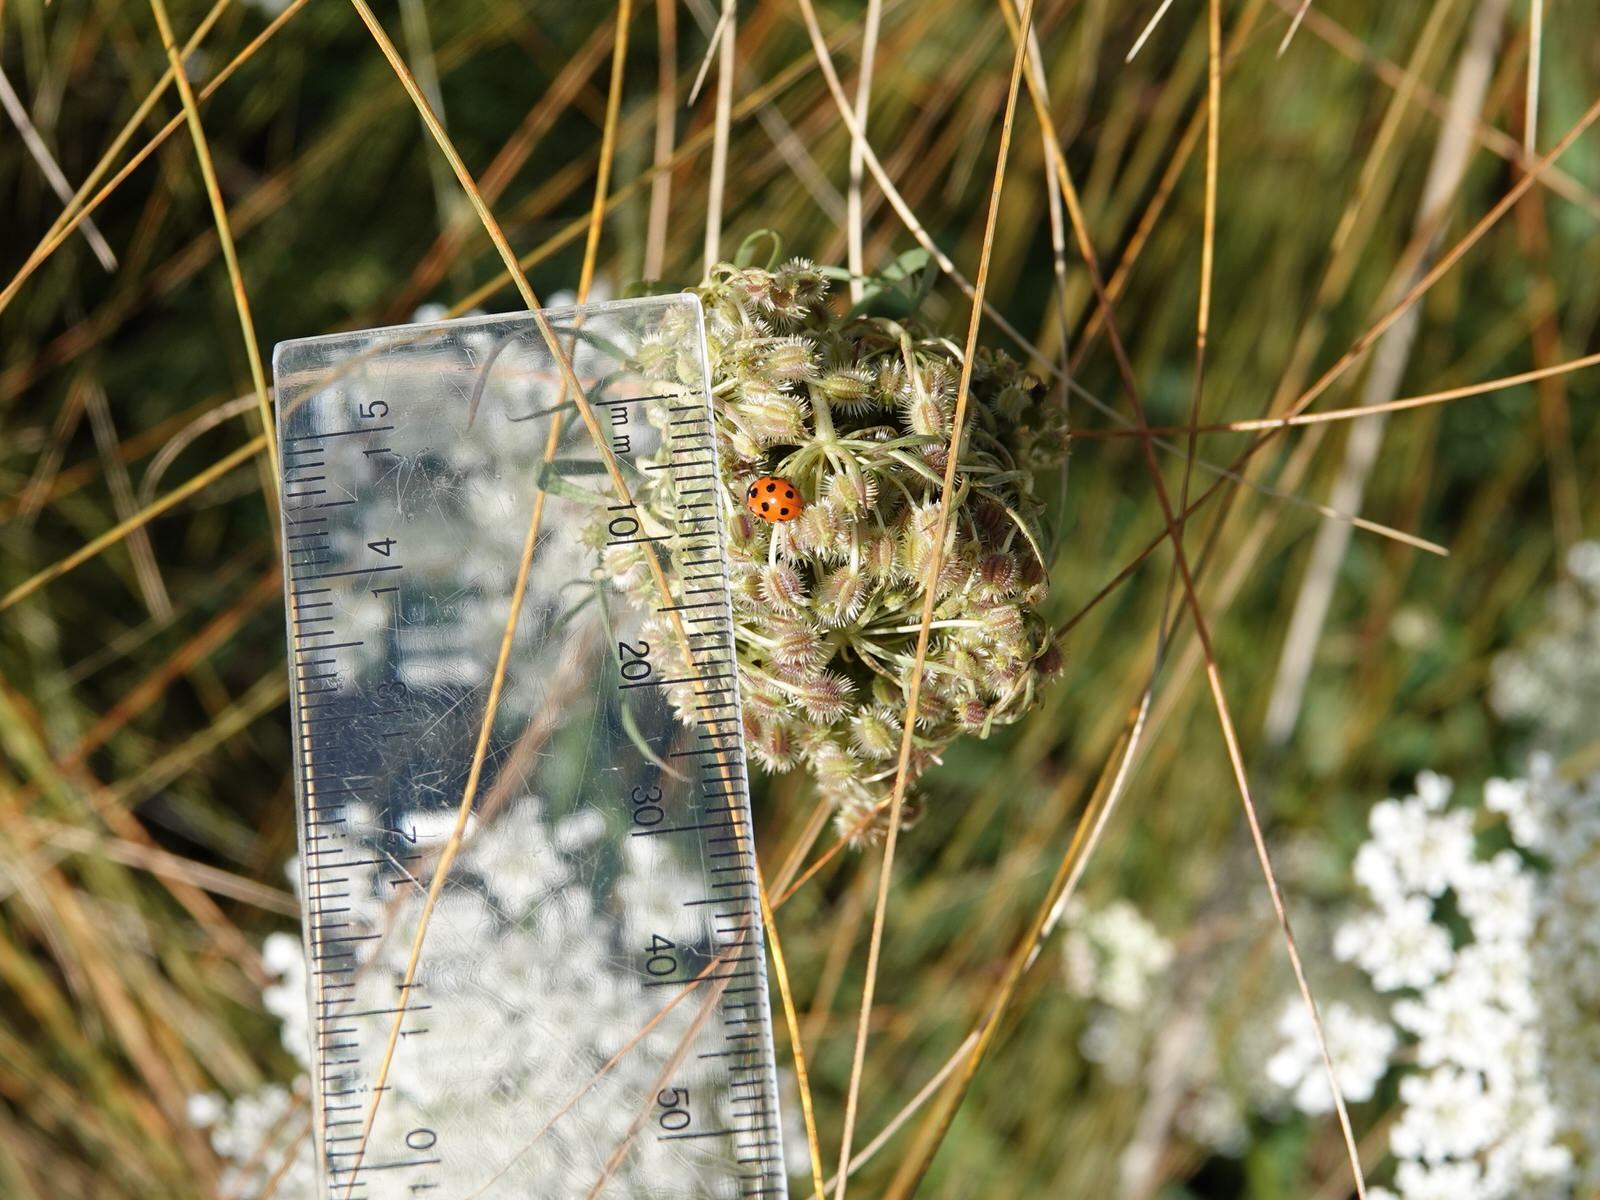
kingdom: Animalia
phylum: Arthropoda
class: Insecta
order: Coleoptera
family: Coccinellidae
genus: Coccinella
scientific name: Coccinella undecimpunctata
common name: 11-spot ladybird
